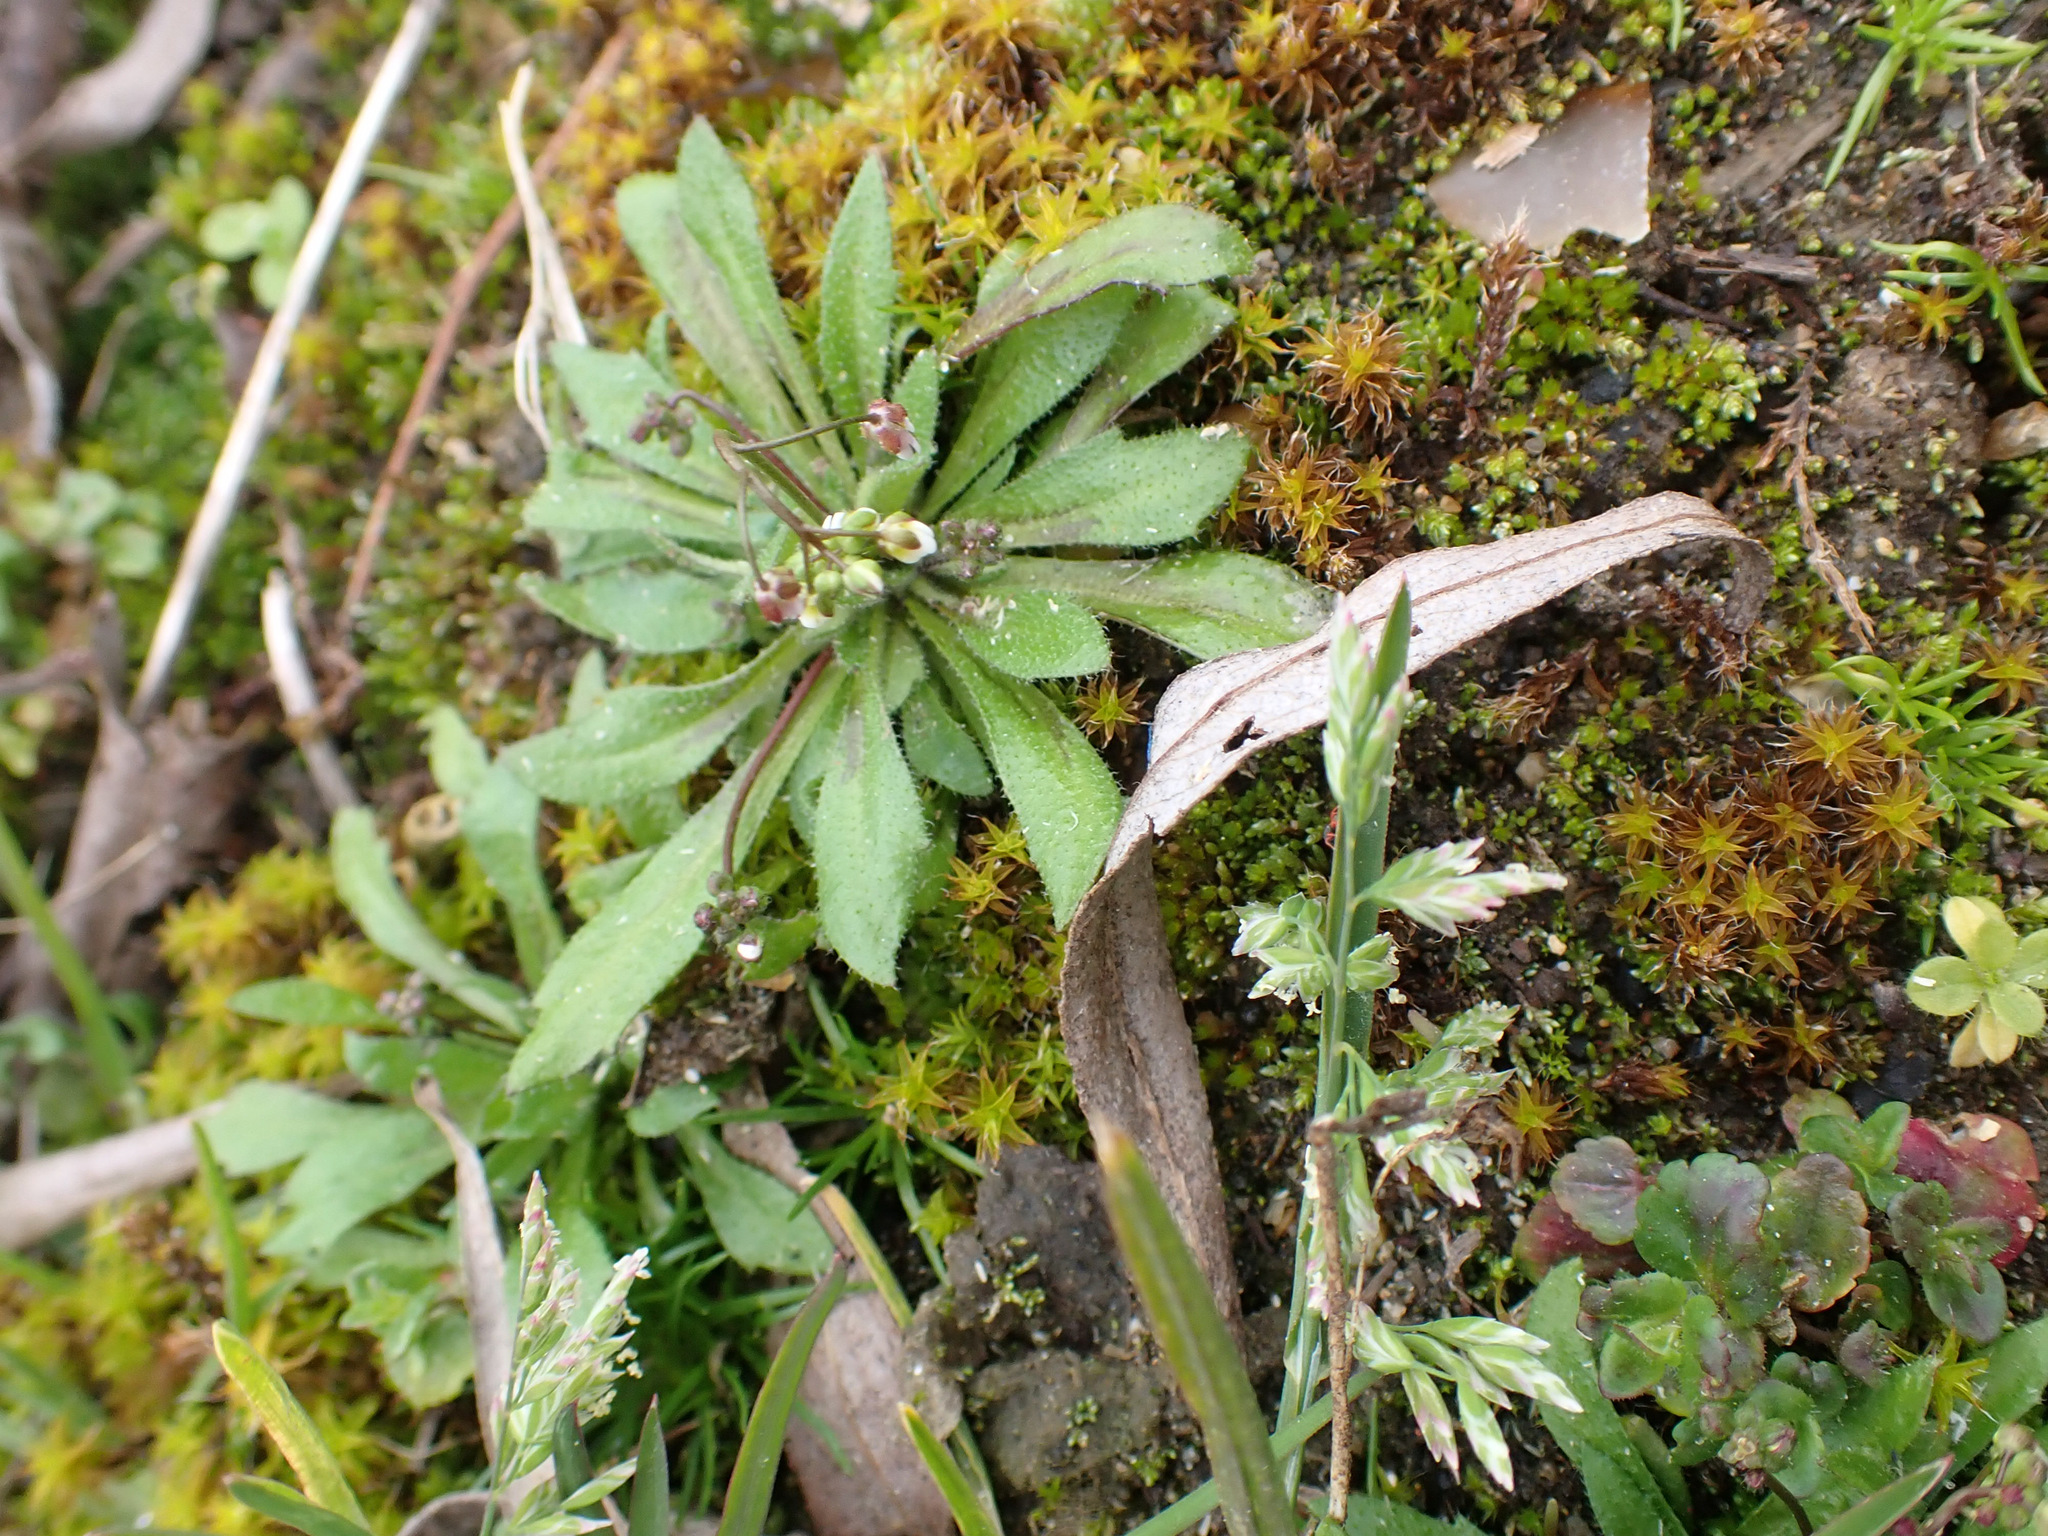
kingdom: Plantae
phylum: Tracheophyta
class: Magnoliopsida
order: Brassicales
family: Brassicaceae
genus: Draba
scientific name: Draba verna
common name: Spring draba
